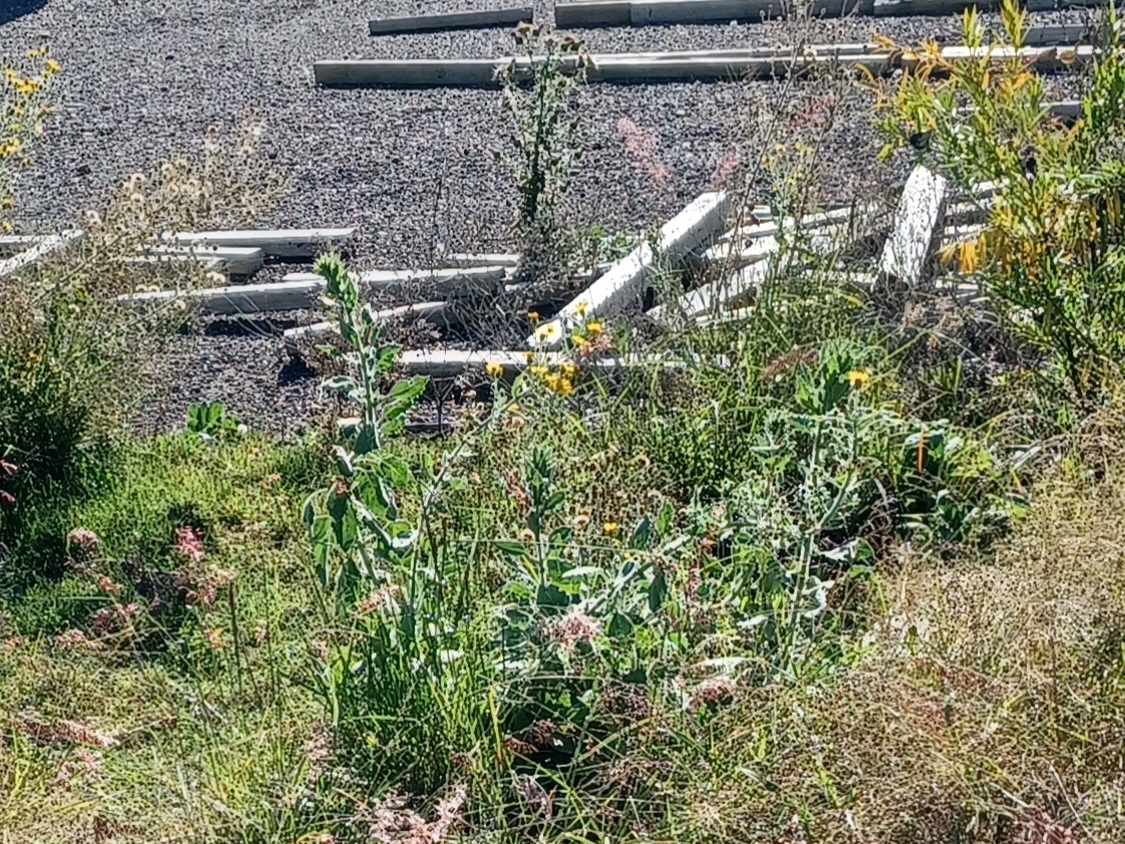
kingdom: Plantae
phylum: Tracheophyta
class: Magnoliopsida
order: Asterales
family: Asteraceae
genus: Heterotheca
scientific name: Heterotheca grandiflora
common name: Telegraphweed
